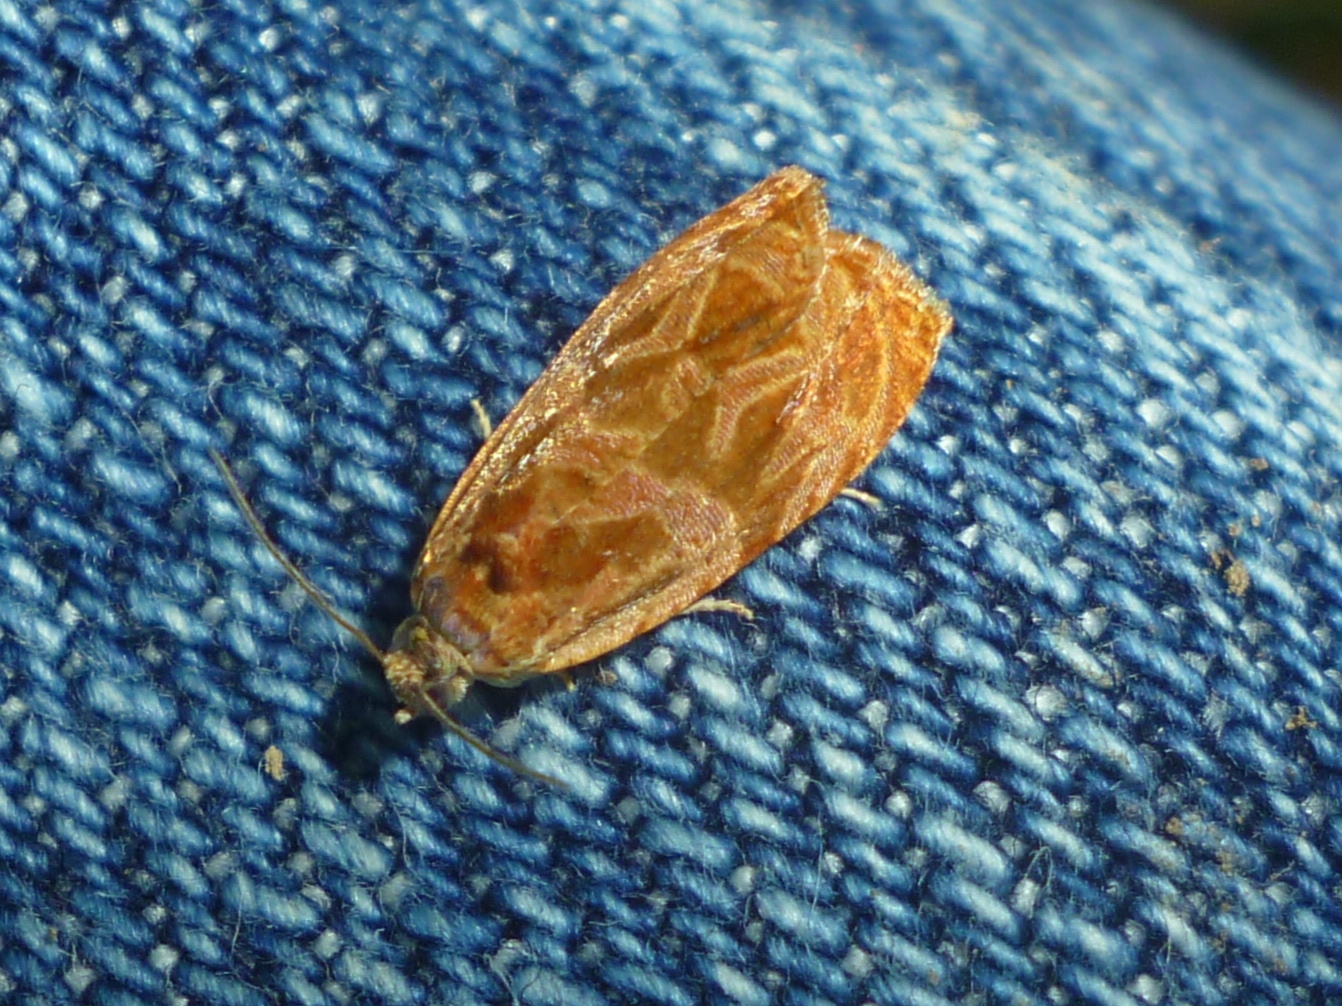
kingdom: Animalia
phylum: Arthropoda
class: Insecta
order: Lepidoptera
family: Tortricidae
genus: Olethreutes
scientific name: Olethreutes nitidana
